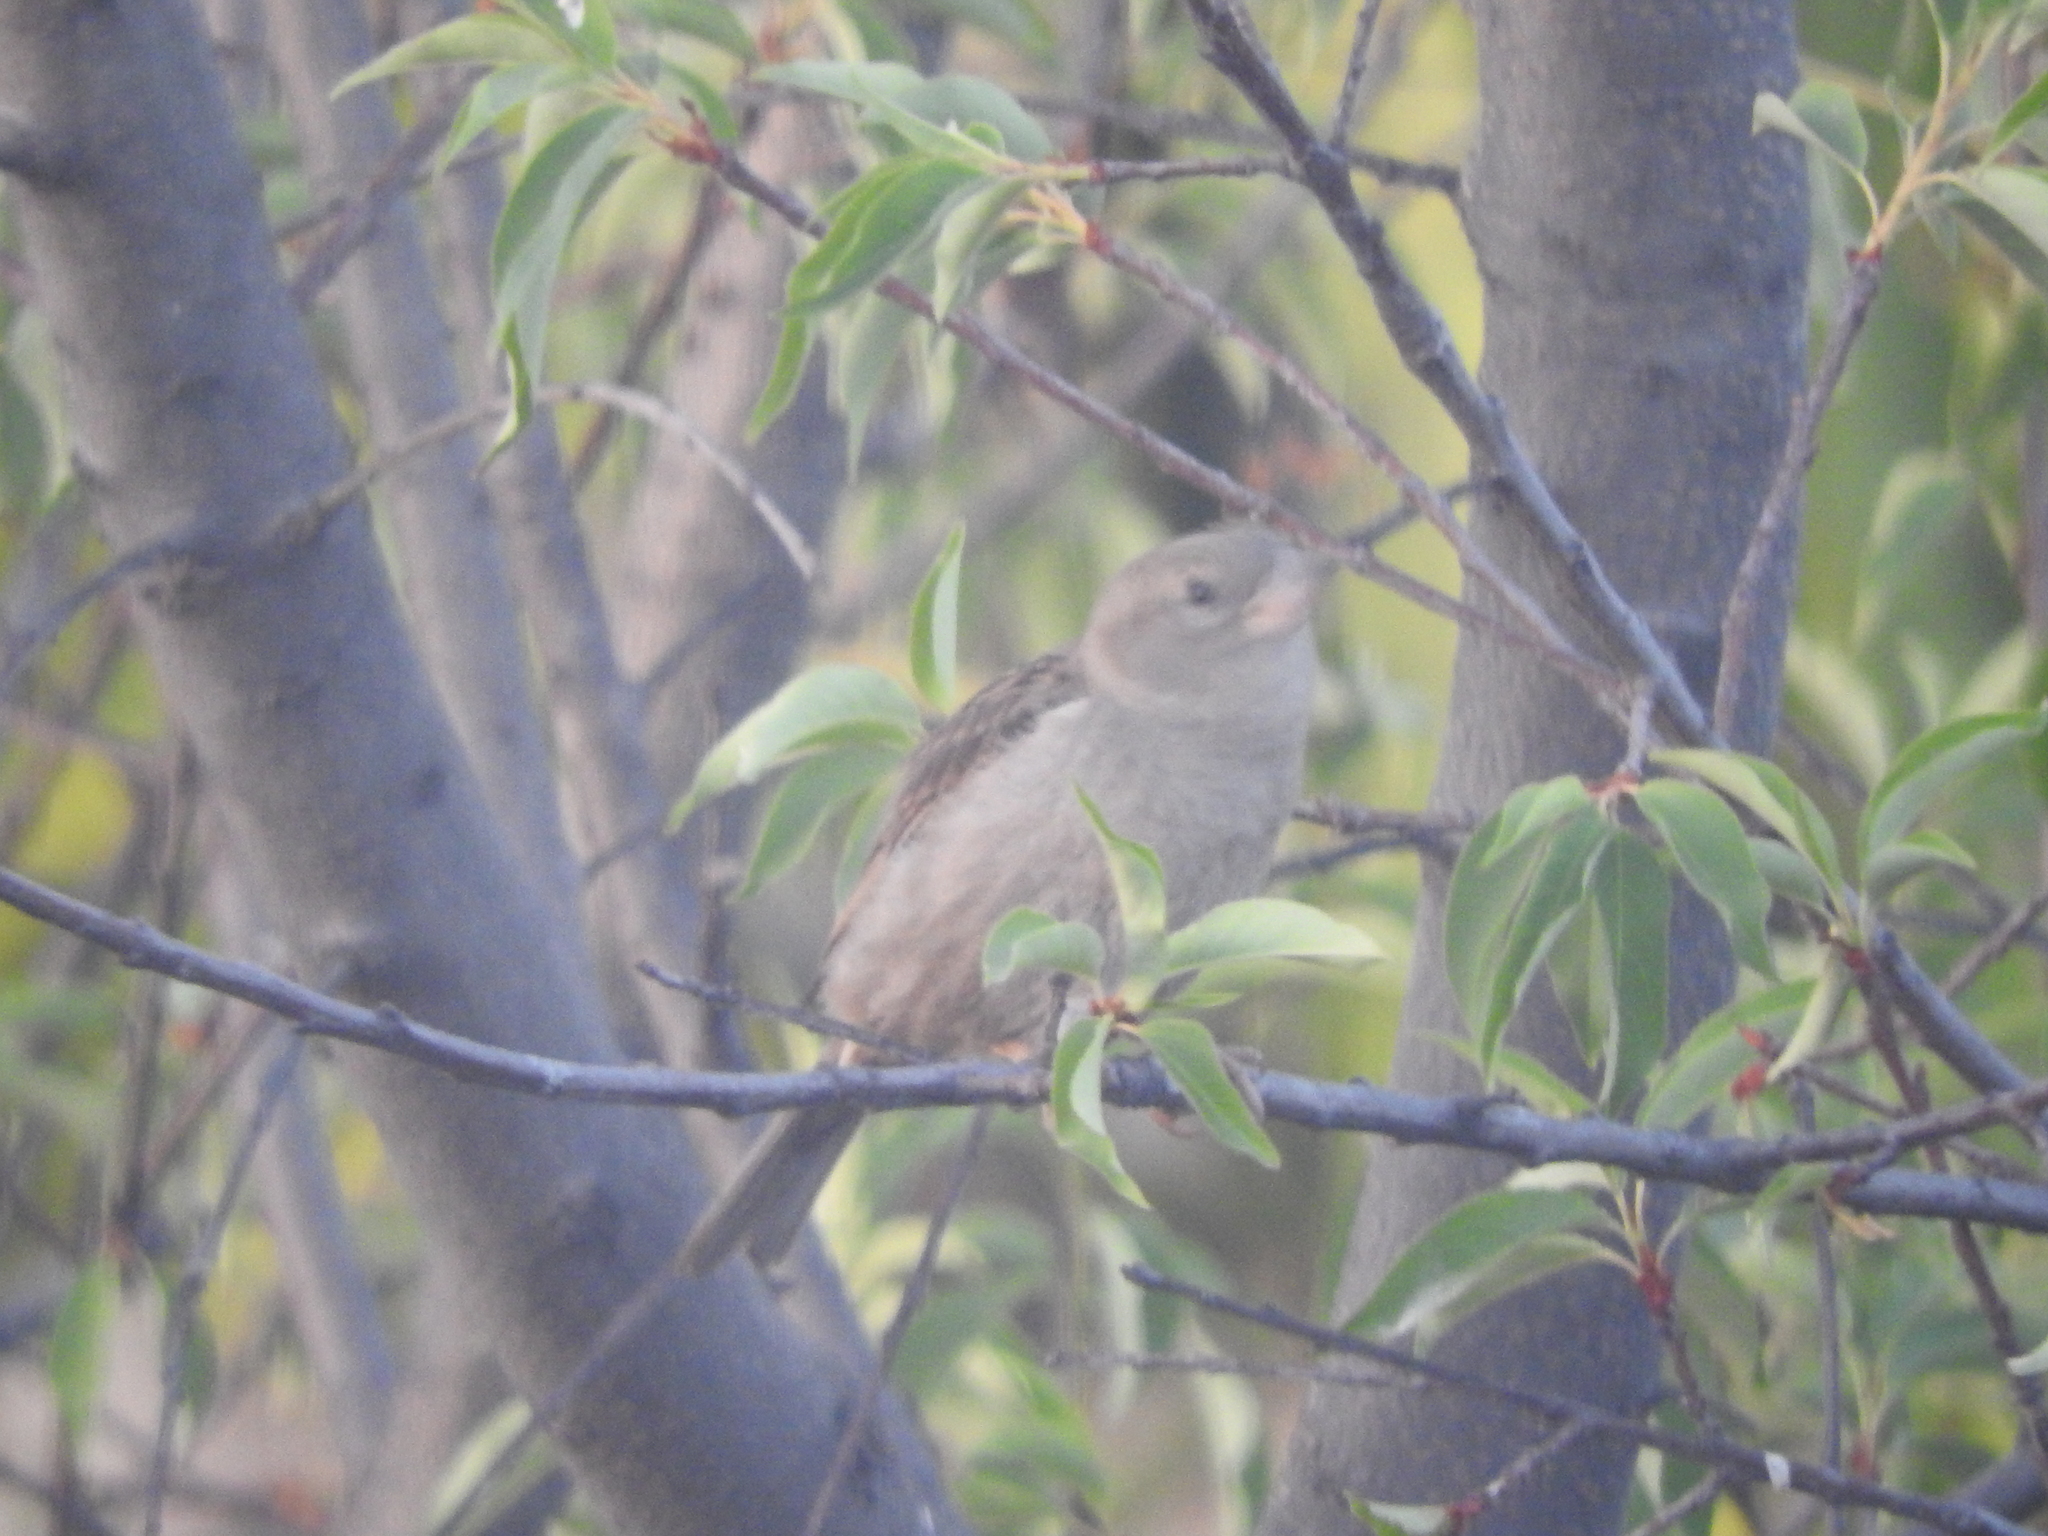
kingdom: Animalia
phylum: Chordata
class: Aves
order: Passeriformes
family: Passeridae
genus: Passer
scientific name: Passer domesticus
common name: House sparrow
